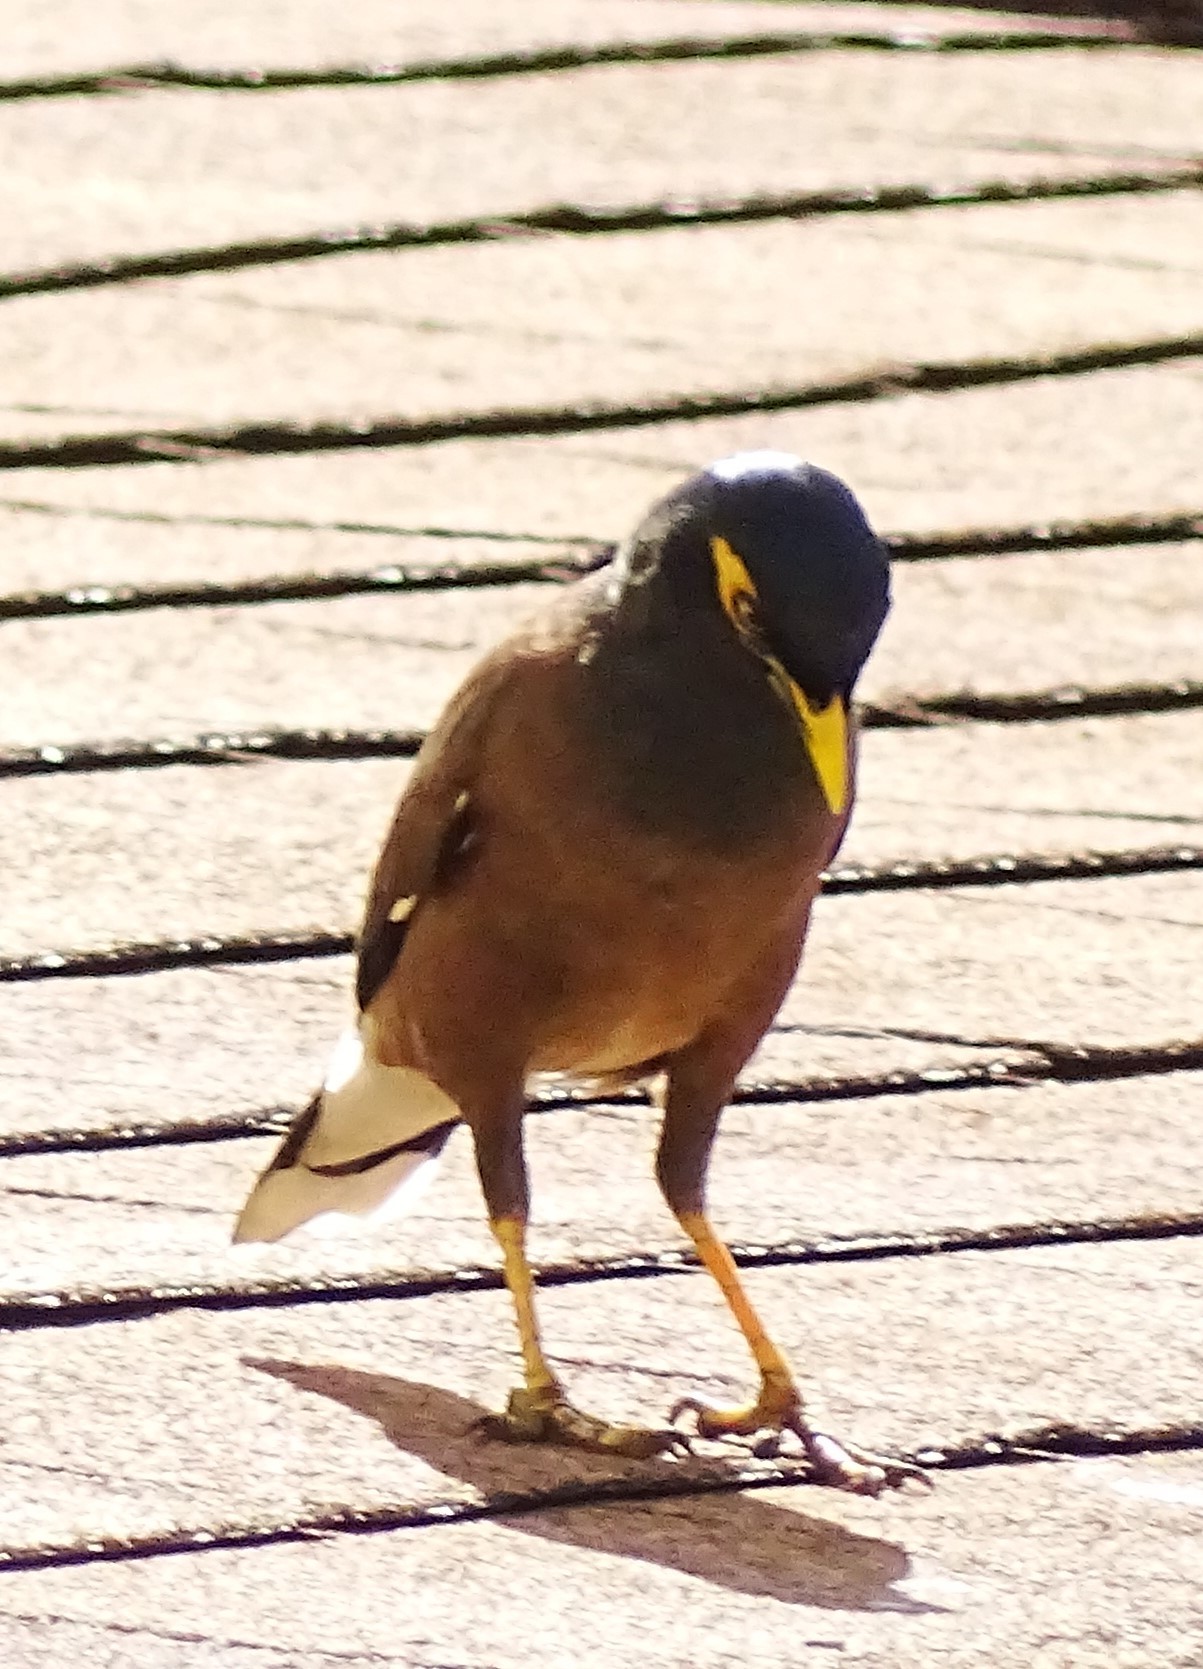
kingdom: Animalia
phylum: Chordata
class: Aves
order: Passeriformes
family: Sturnidae
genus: Acridotheres
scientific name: Acridotheres tristis
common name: Common myna
